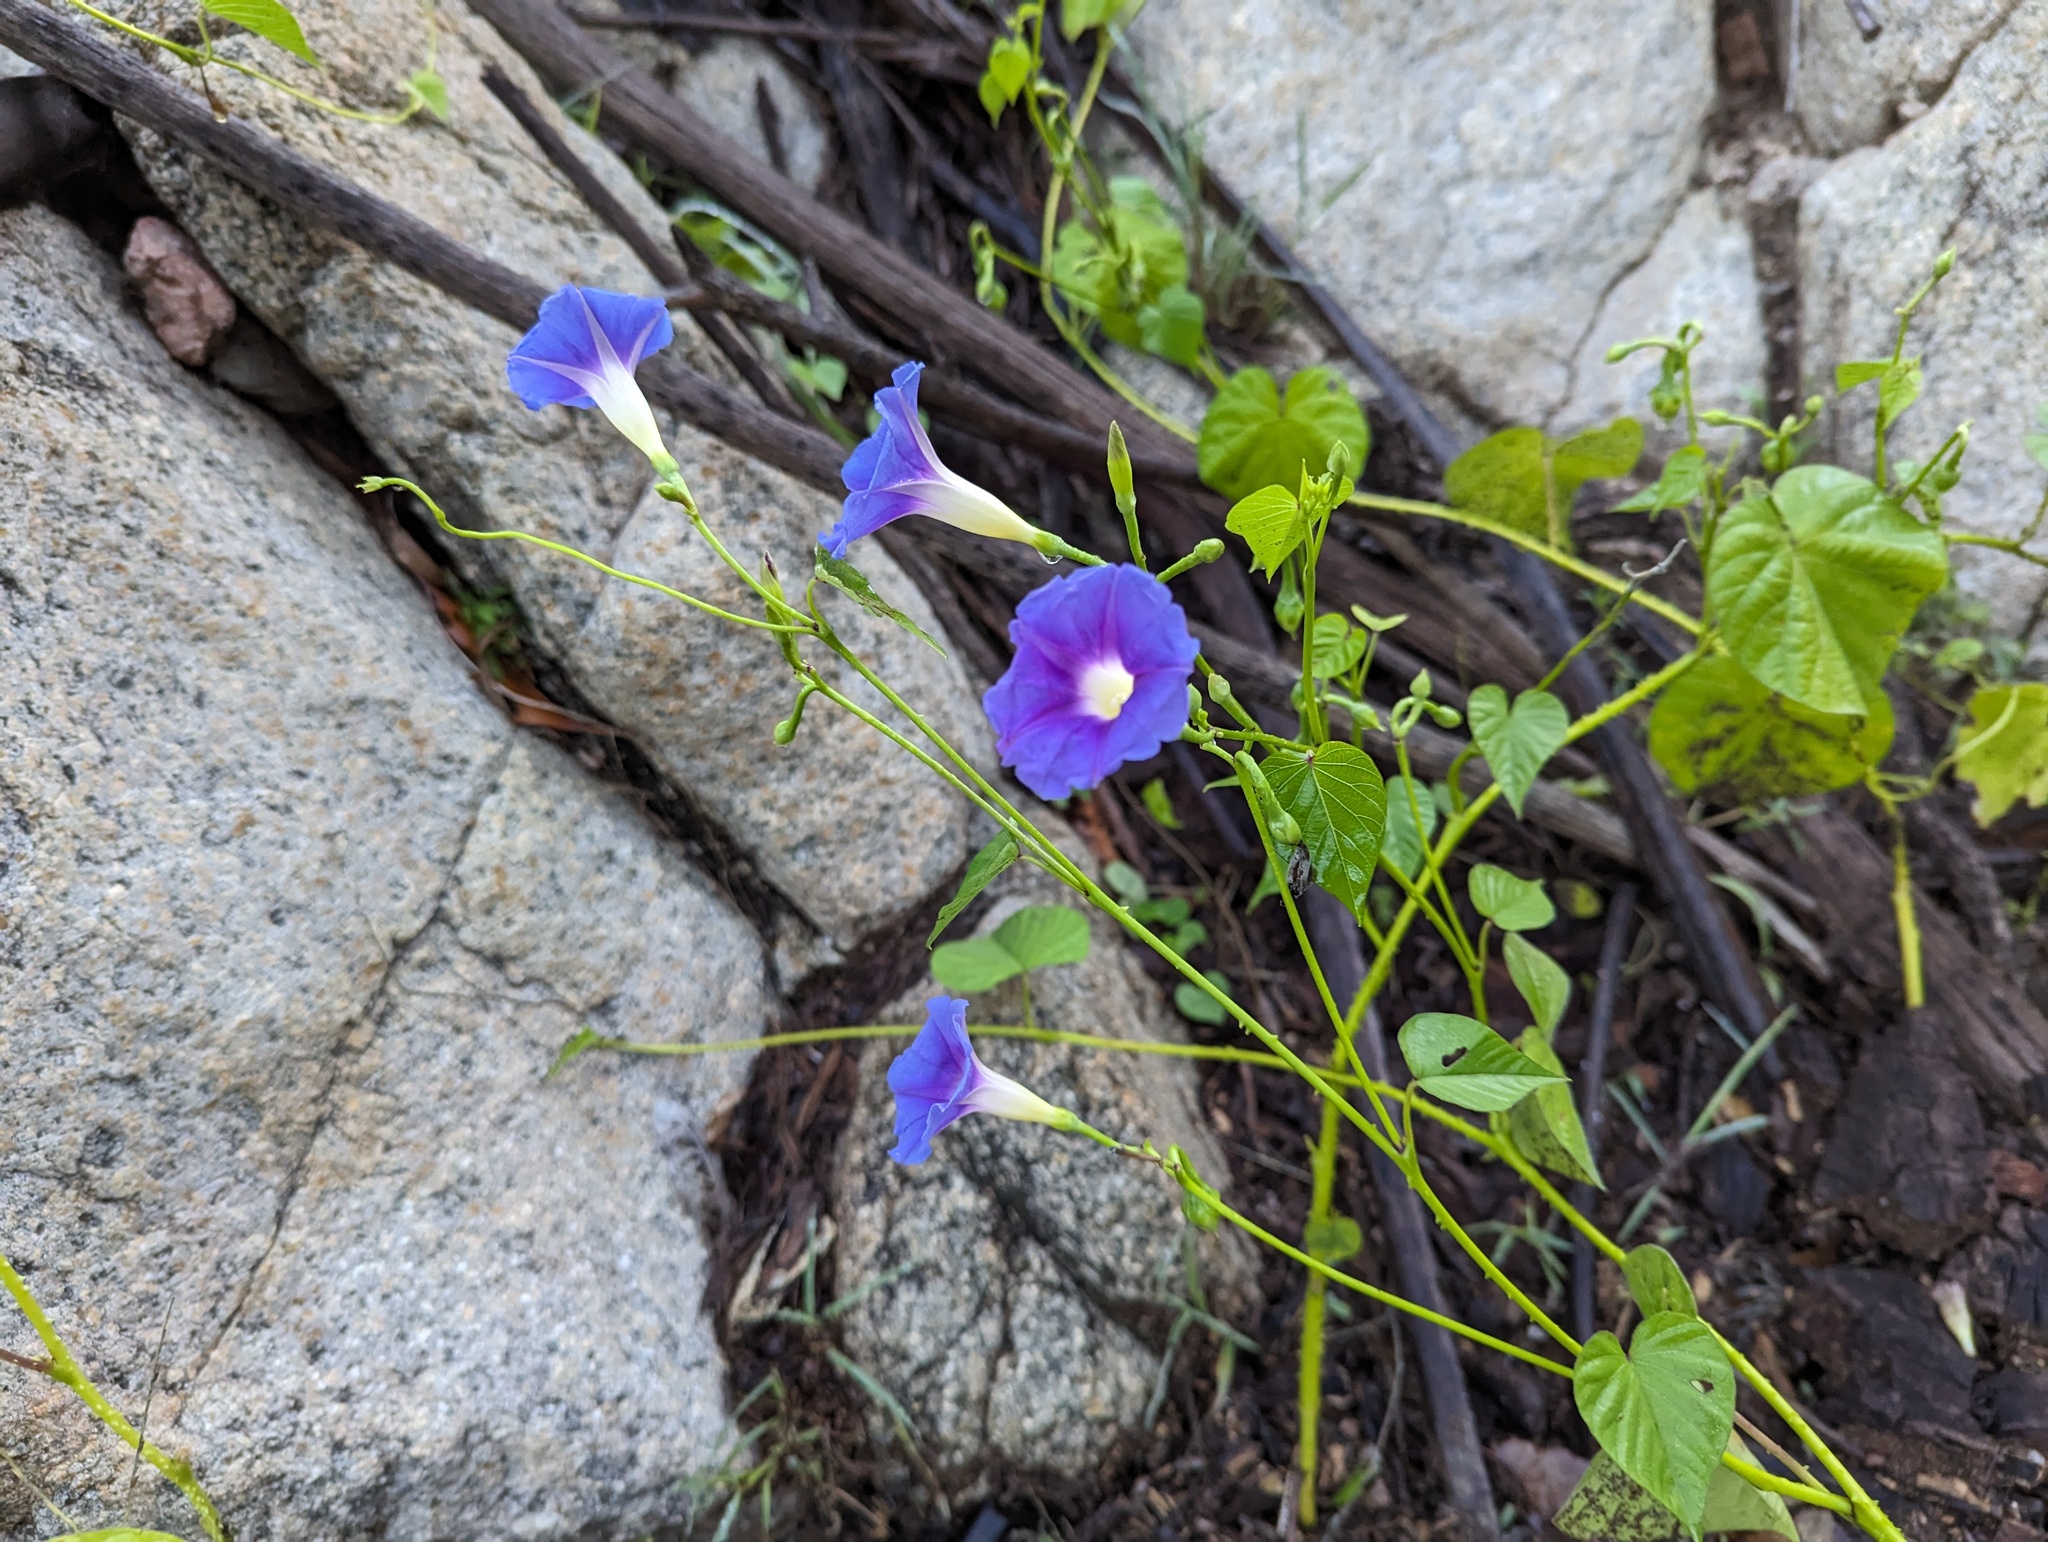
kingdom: Plantae
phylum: Tracheophyta
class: Magnoliopsida
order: Solanales
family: Convolvulaceae
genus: Ipomoea
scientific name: Ipomoea parasitica
